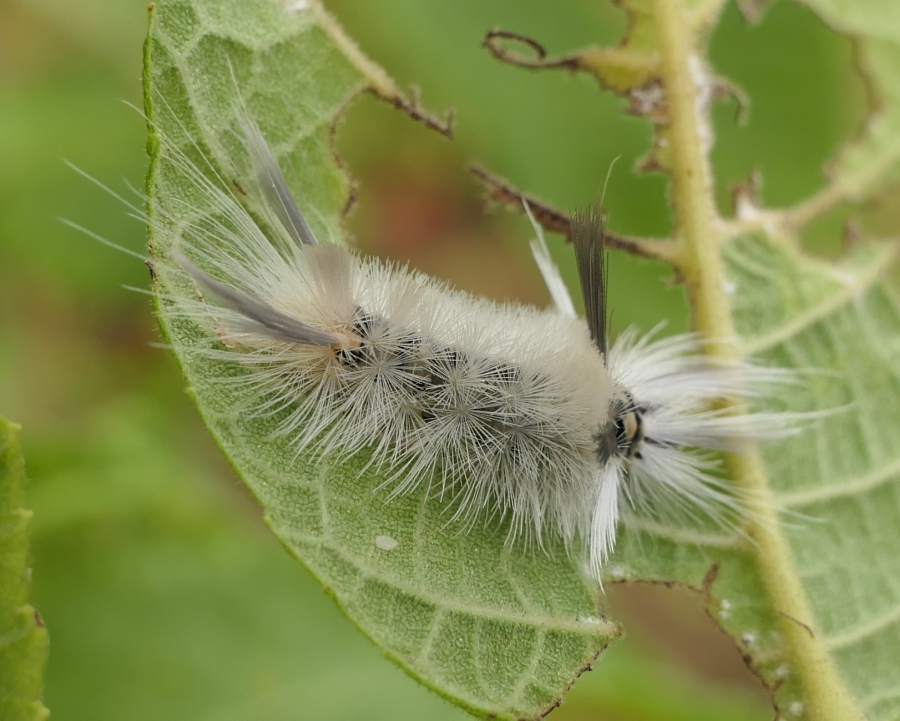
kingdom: Animalia
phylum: Arthropoda
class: Insecta
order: Lepidoptera
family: Erebidae
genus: Halysidota
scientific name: Halysidota tessellaris
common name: Banded tussock moth
